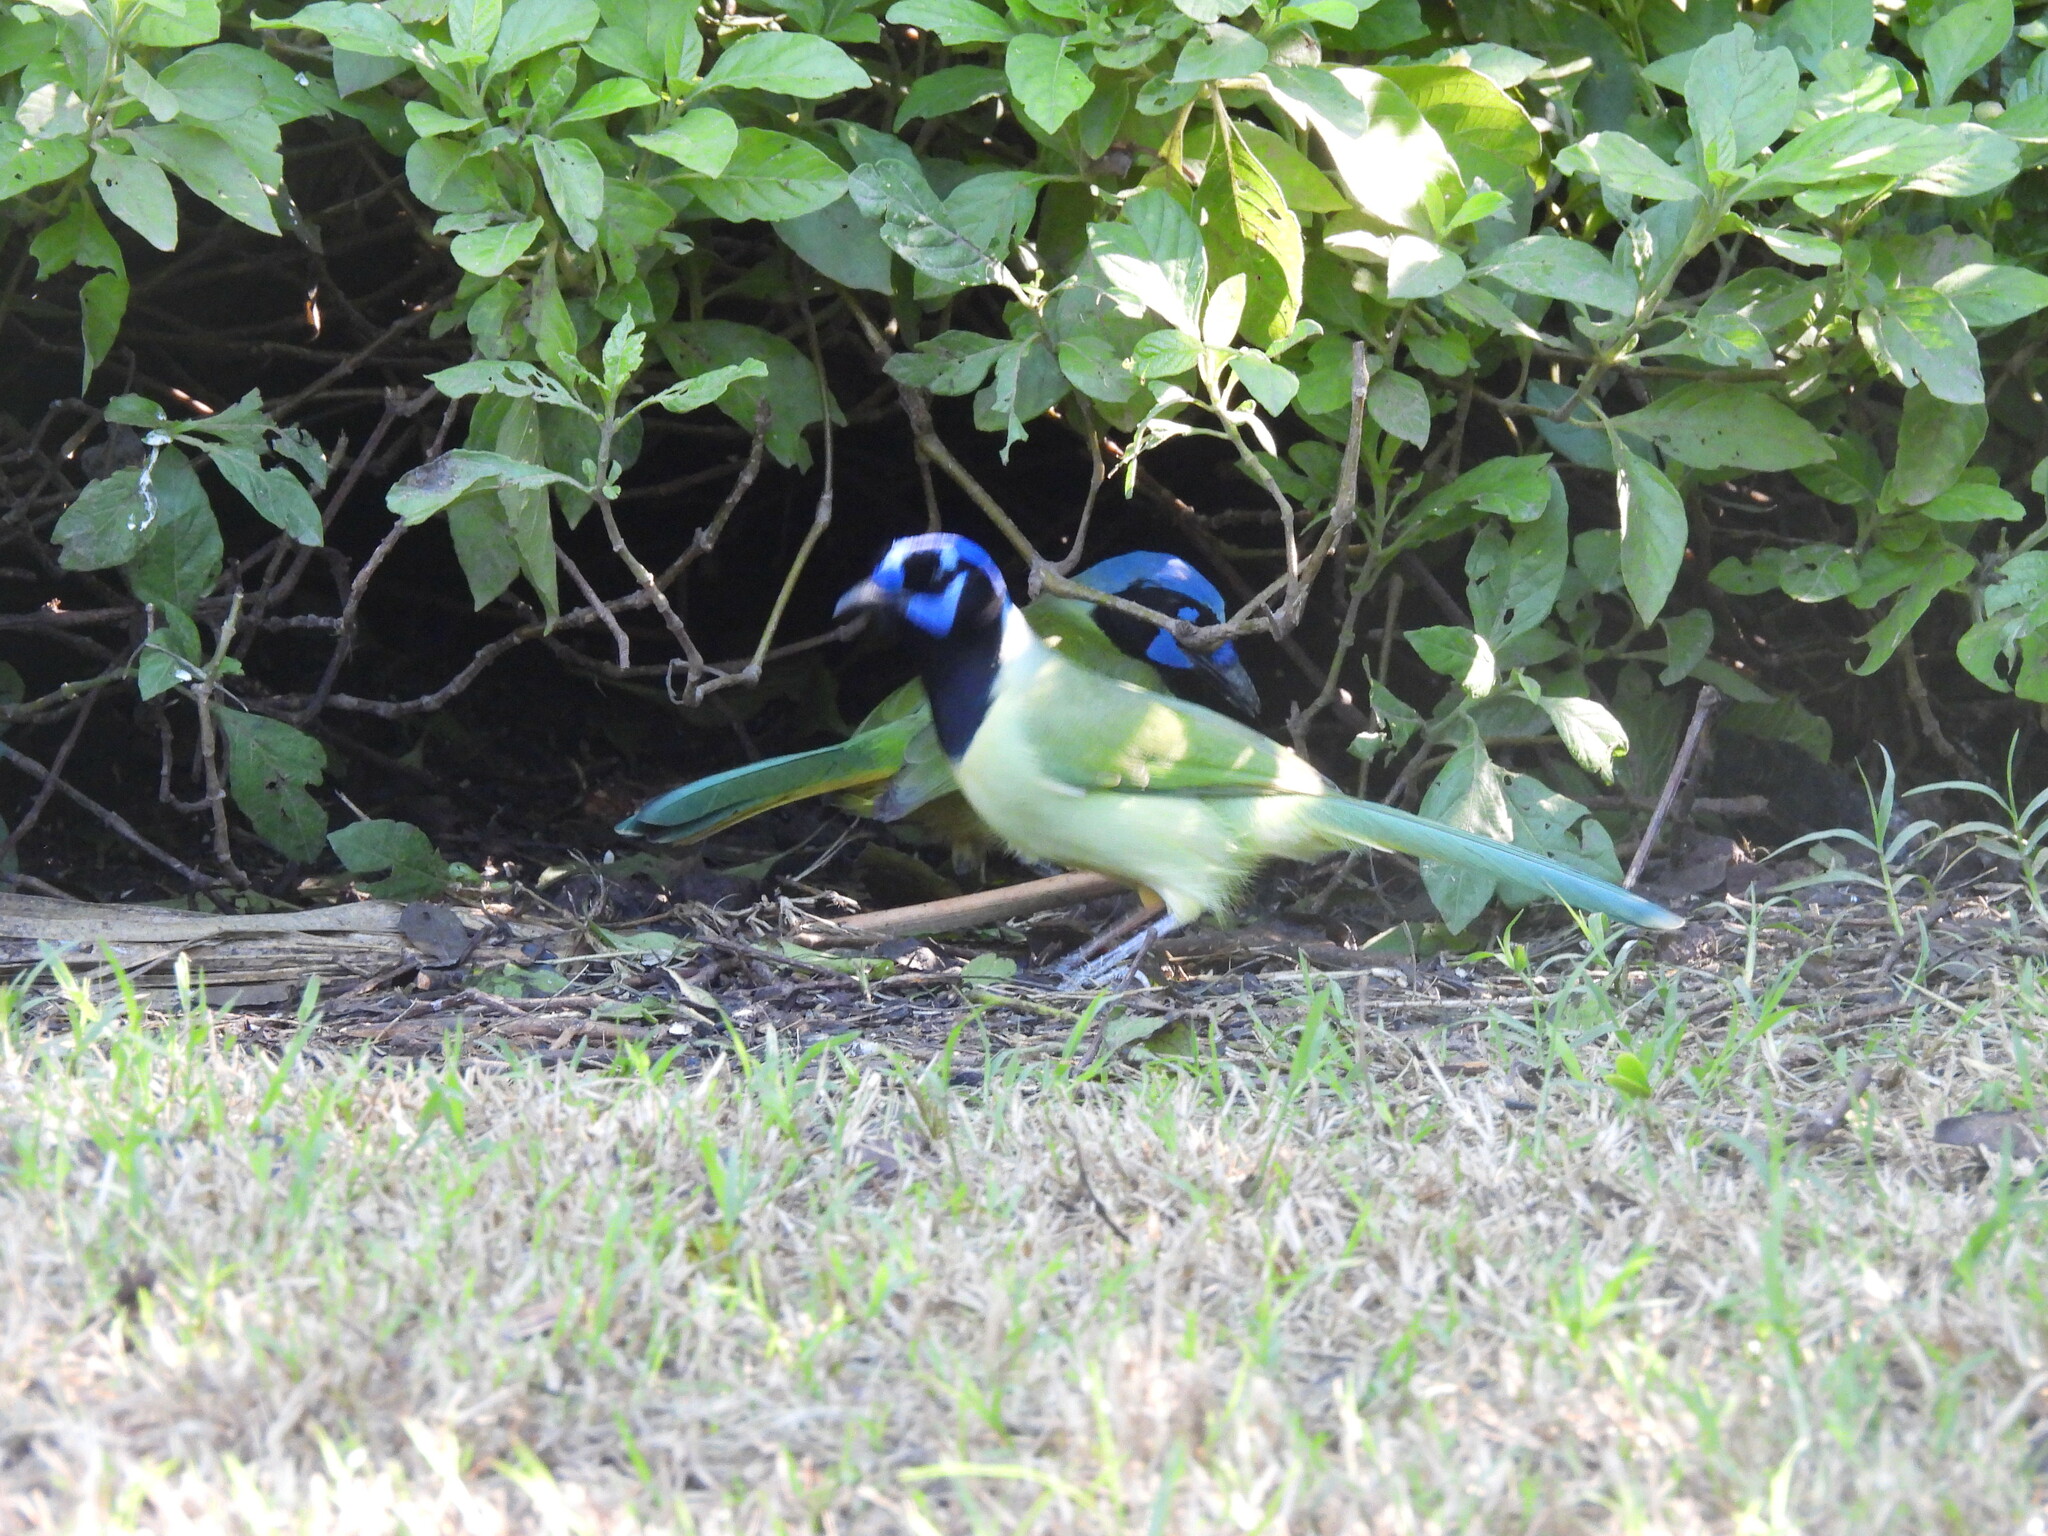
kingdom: Animalia
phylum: Chordata
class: Aves
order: Passeriformes
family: Corvidae
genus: Cyanocorax
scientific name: Cyanocorax yncas
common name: Green jay
